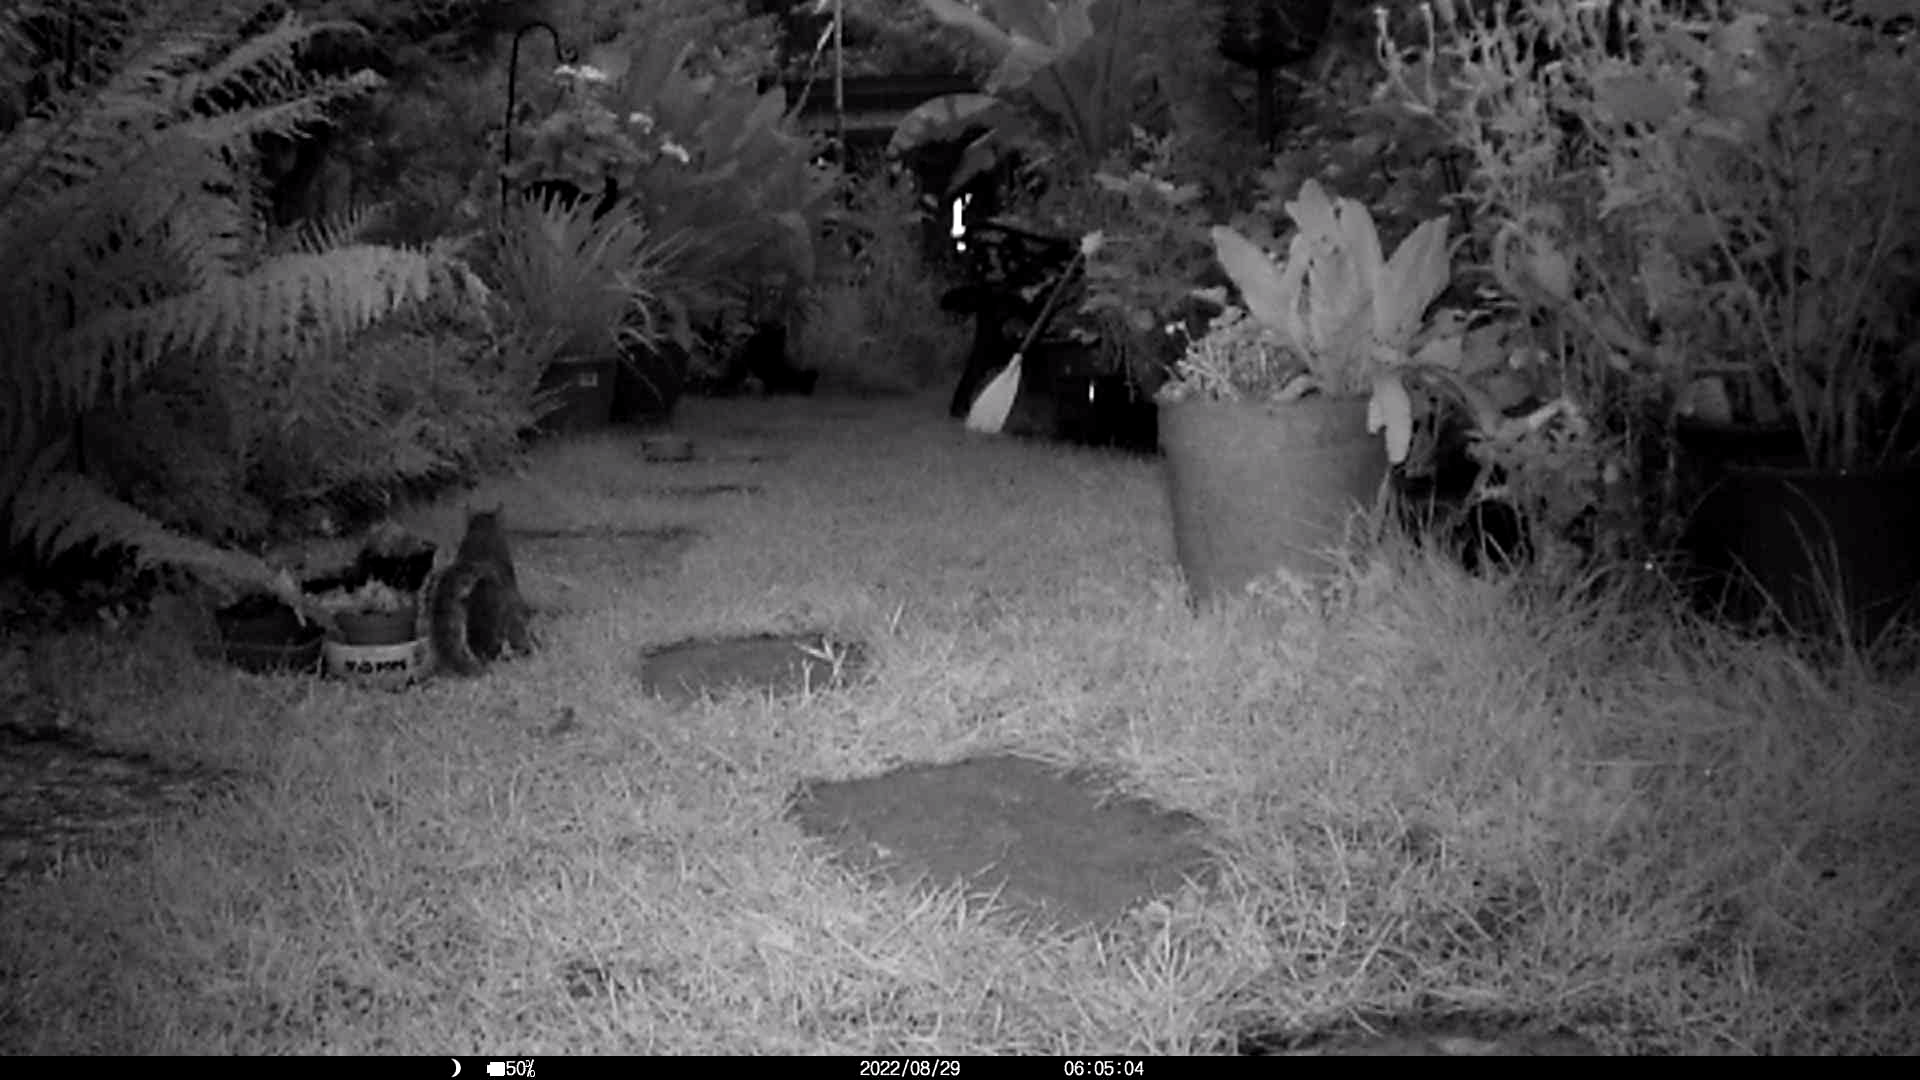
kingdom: Animalia
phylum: Chordata
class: Mammalia
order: Rodentia
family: Sciuridae
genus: Sciurus
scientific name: Sciurus carolinensis
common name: Eastern gray squirrel
